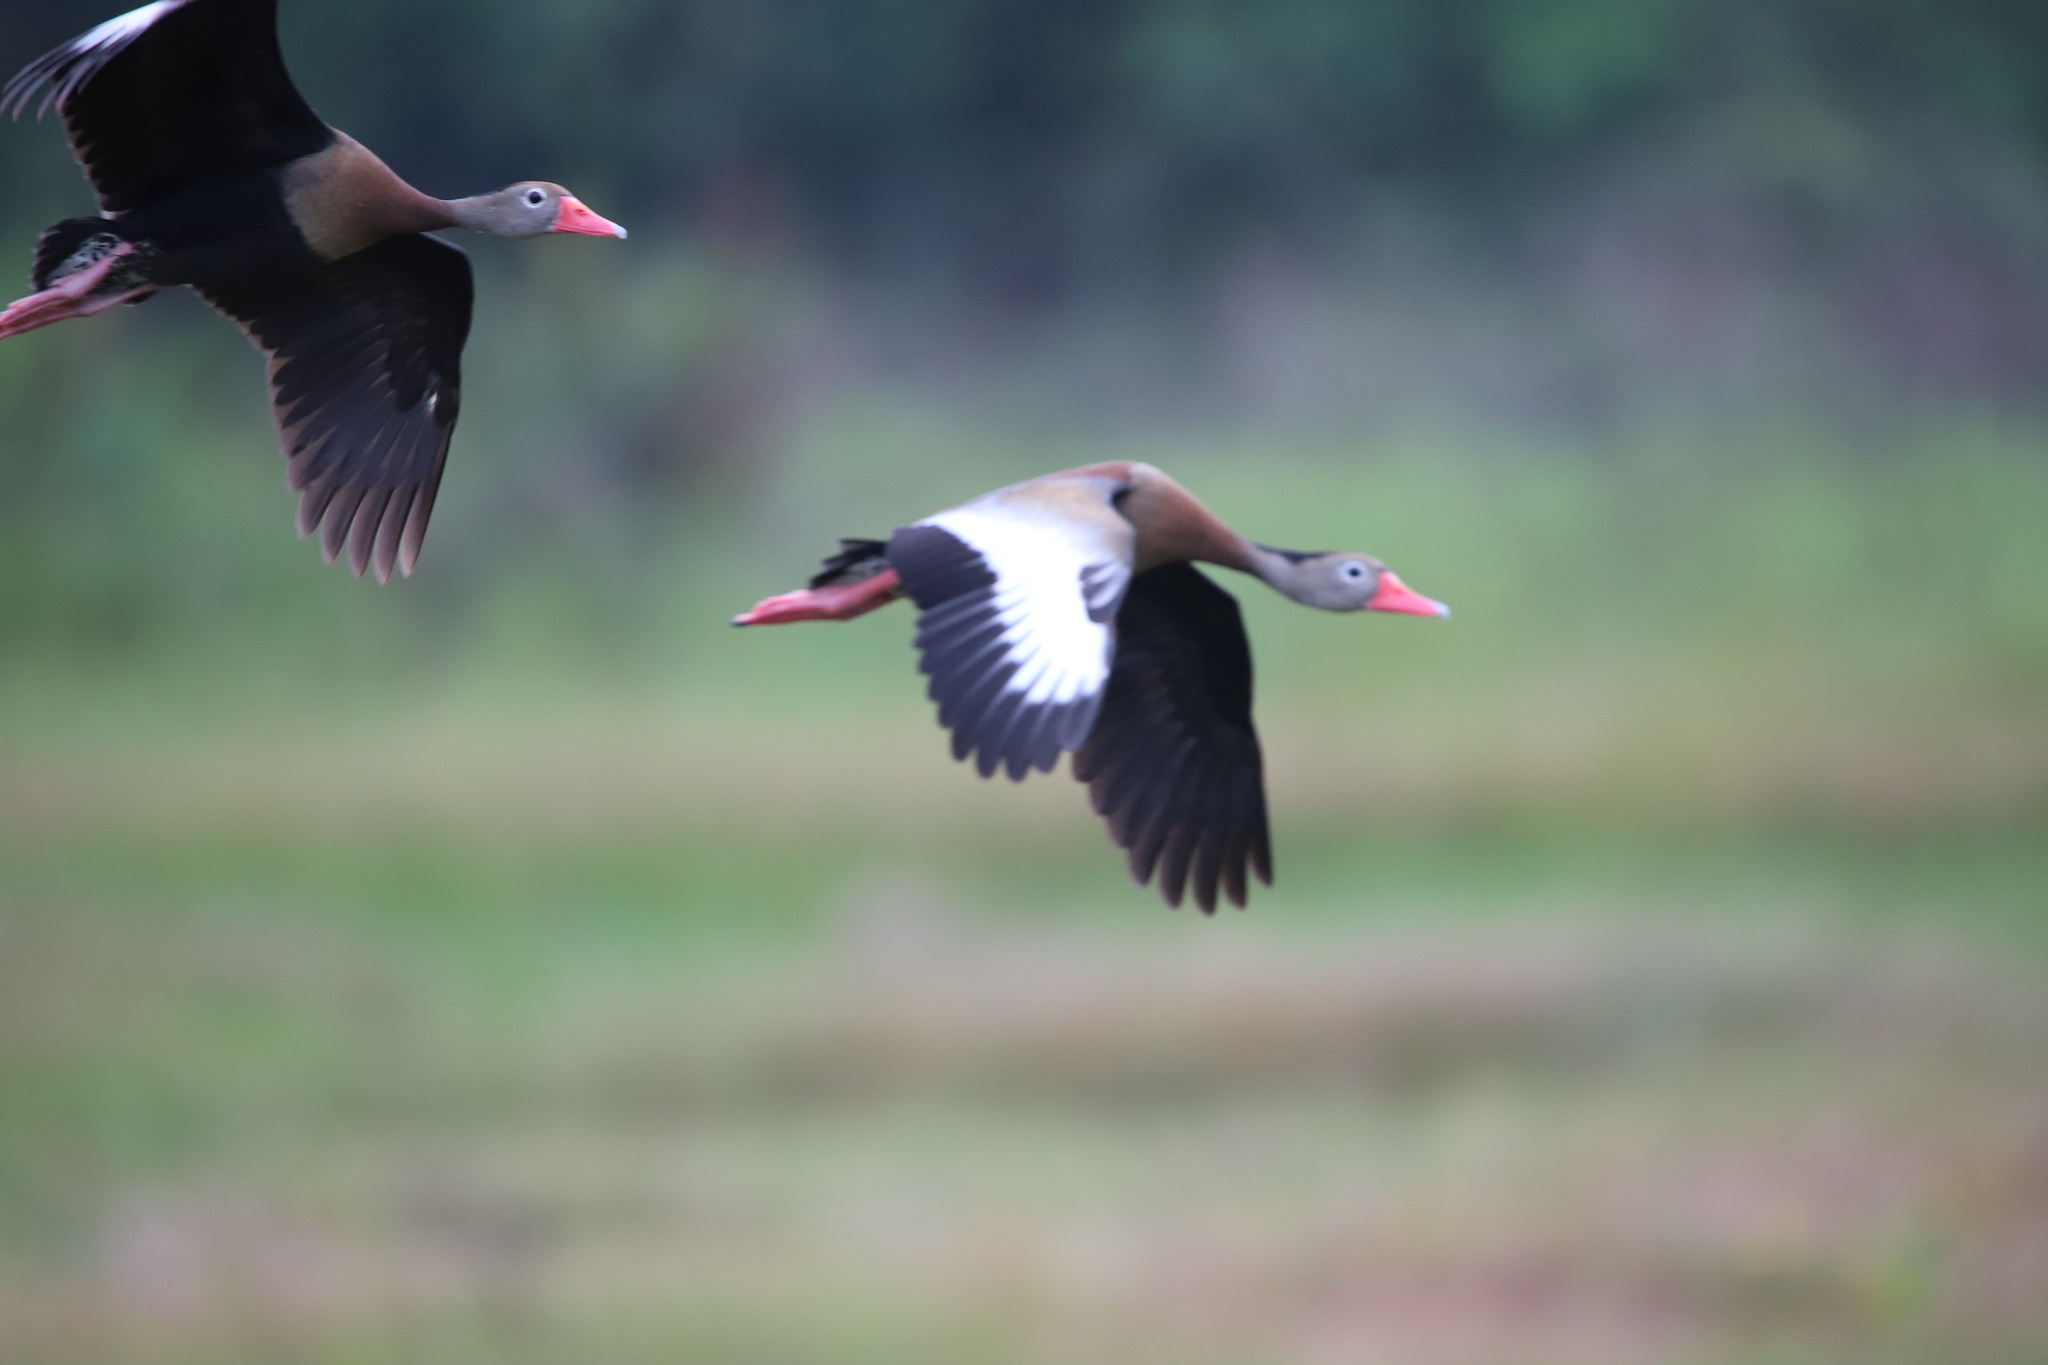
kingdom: Animalia
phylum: Chordata
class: Aves
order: Anseriformes
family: Anatidae
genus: Dendrocygna
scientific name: Dendrocygna autumnalis
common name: Black-bellied whistling duck
